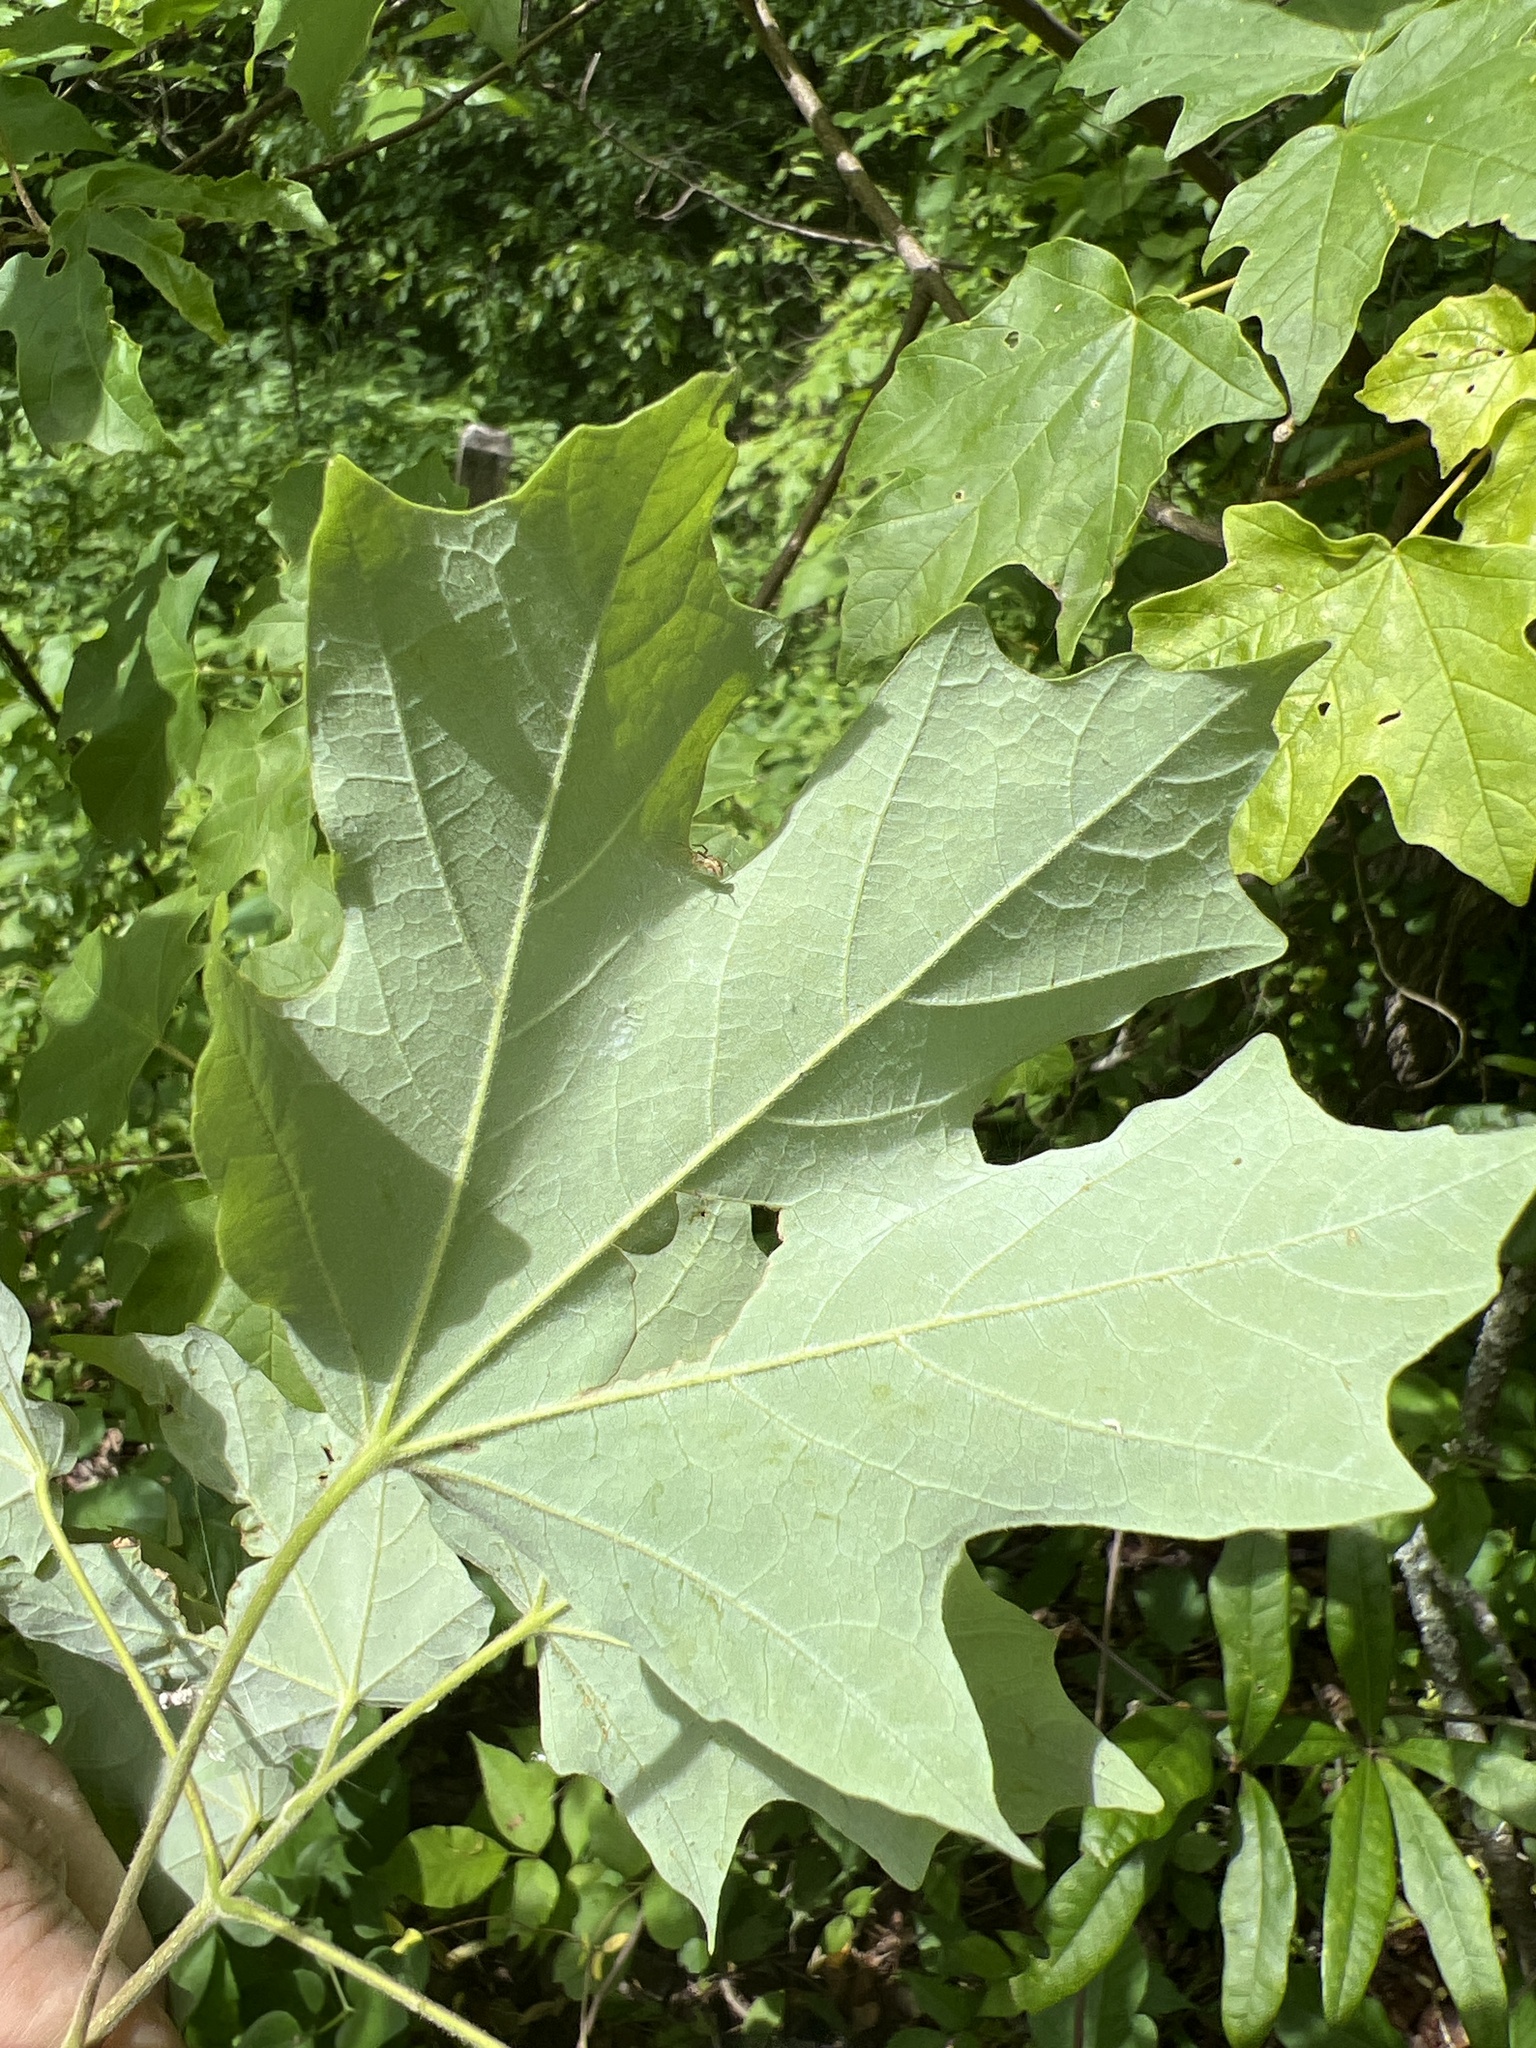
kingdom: Plantae
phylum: Tracheophyta
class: Magnoliopsida
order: Sapindales
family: Sapindaceae
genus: Acer
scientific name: Acer floridanum
